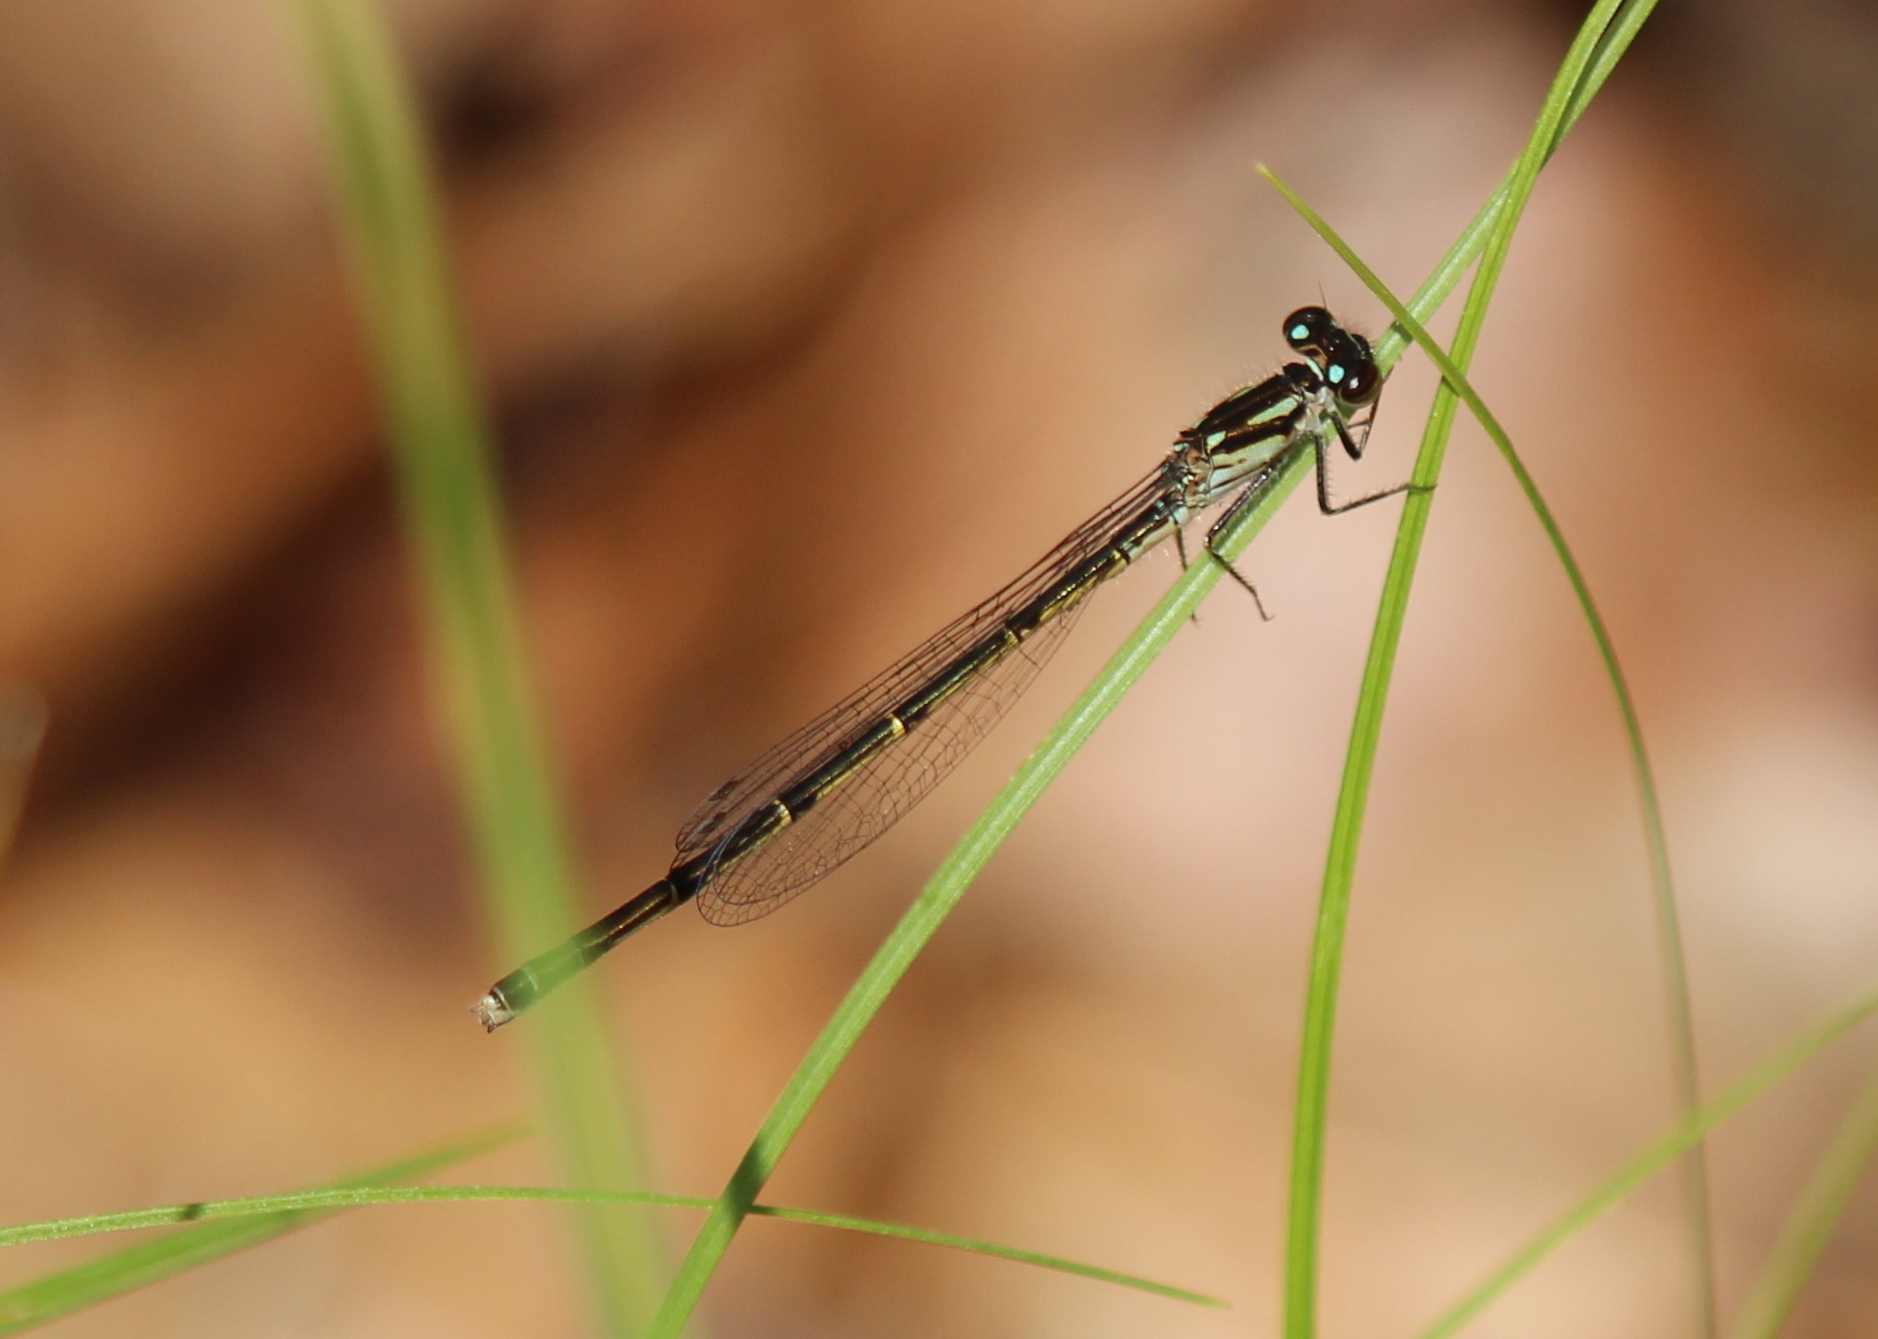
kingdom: Animalia
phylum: Arthropoda
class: Insecta
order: Odonata
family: Coenagrionidae
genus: Ischnura
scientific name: Ischnura posita
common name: Fragile forktail
